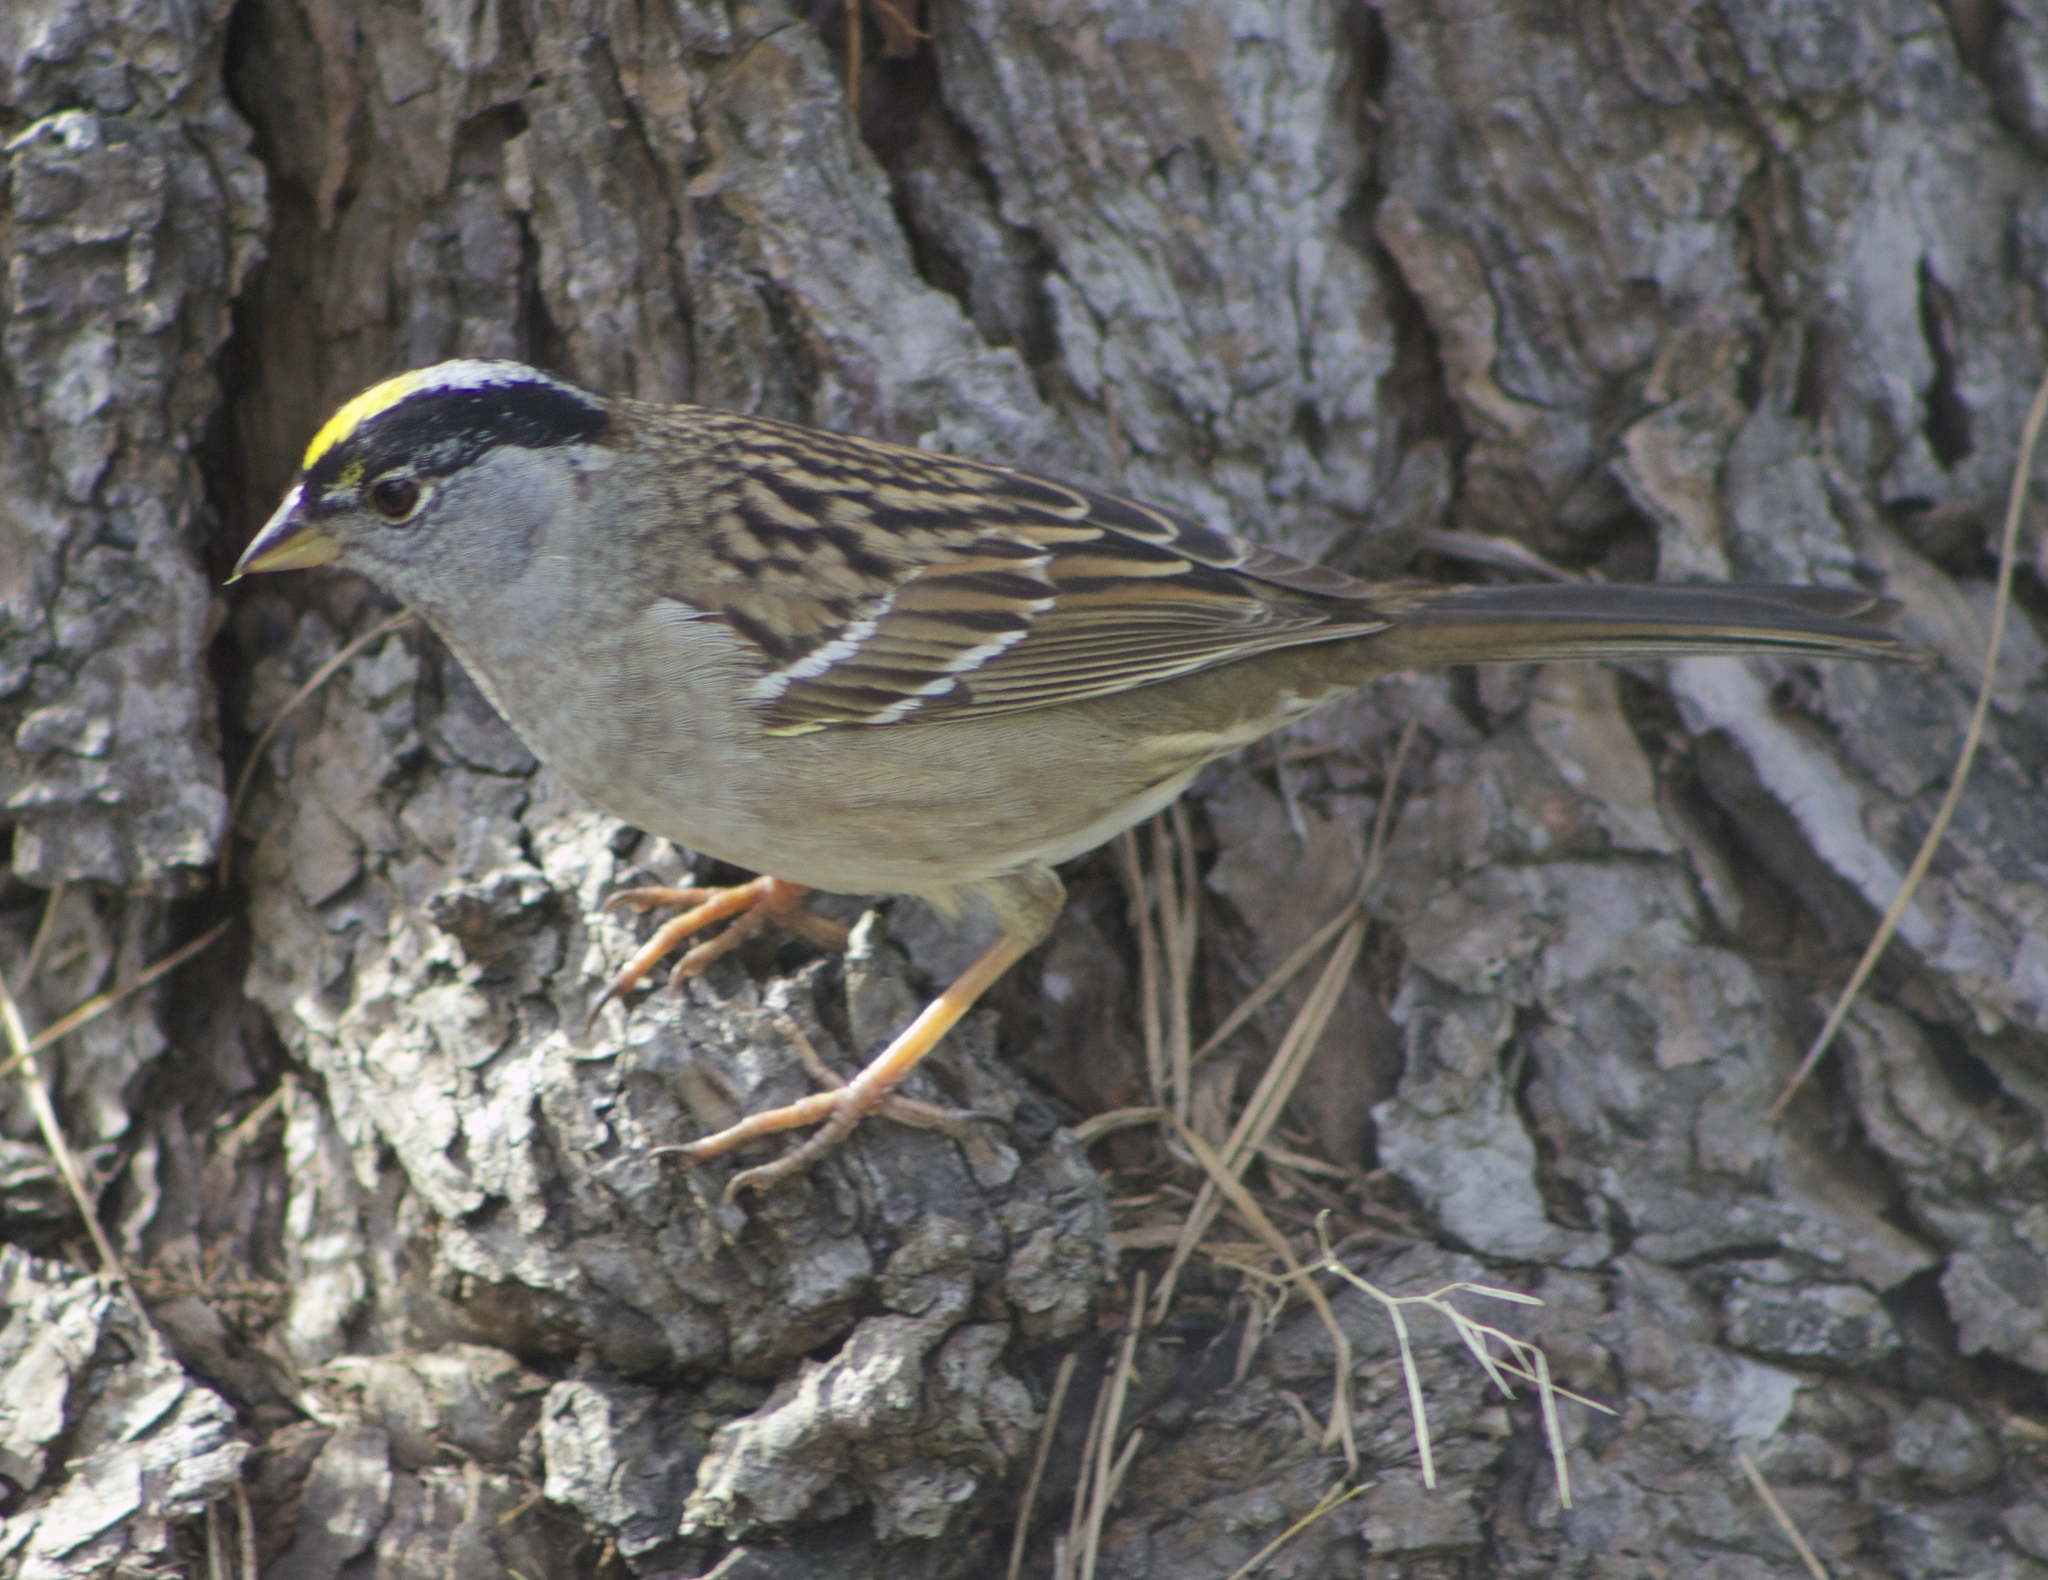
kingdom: Animalia
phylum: Chordata
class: Aves
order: Passeriformes
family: Passerellidae
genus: Zonotrichia
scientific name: Zonotrichia atricapilla
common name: Golden-crowned sparrow
